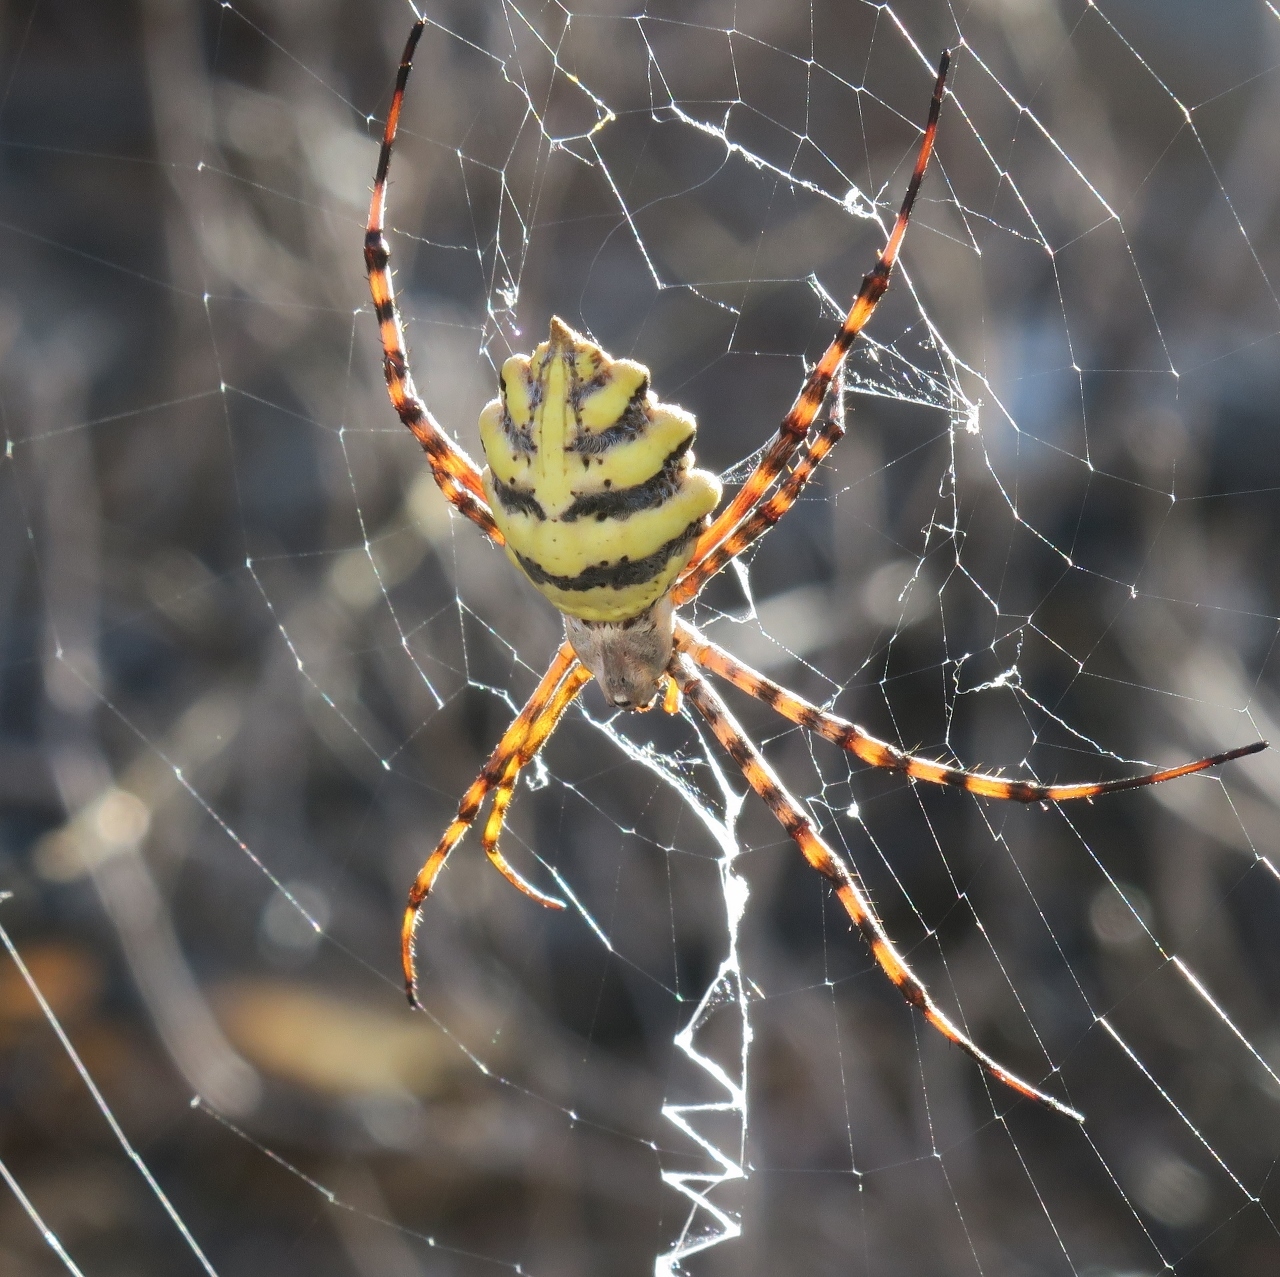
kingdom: Animalia
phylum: Arthropoda
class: Arachnida
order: Araneae
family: Araneidae
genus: Argiope
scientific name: Argiope australis
